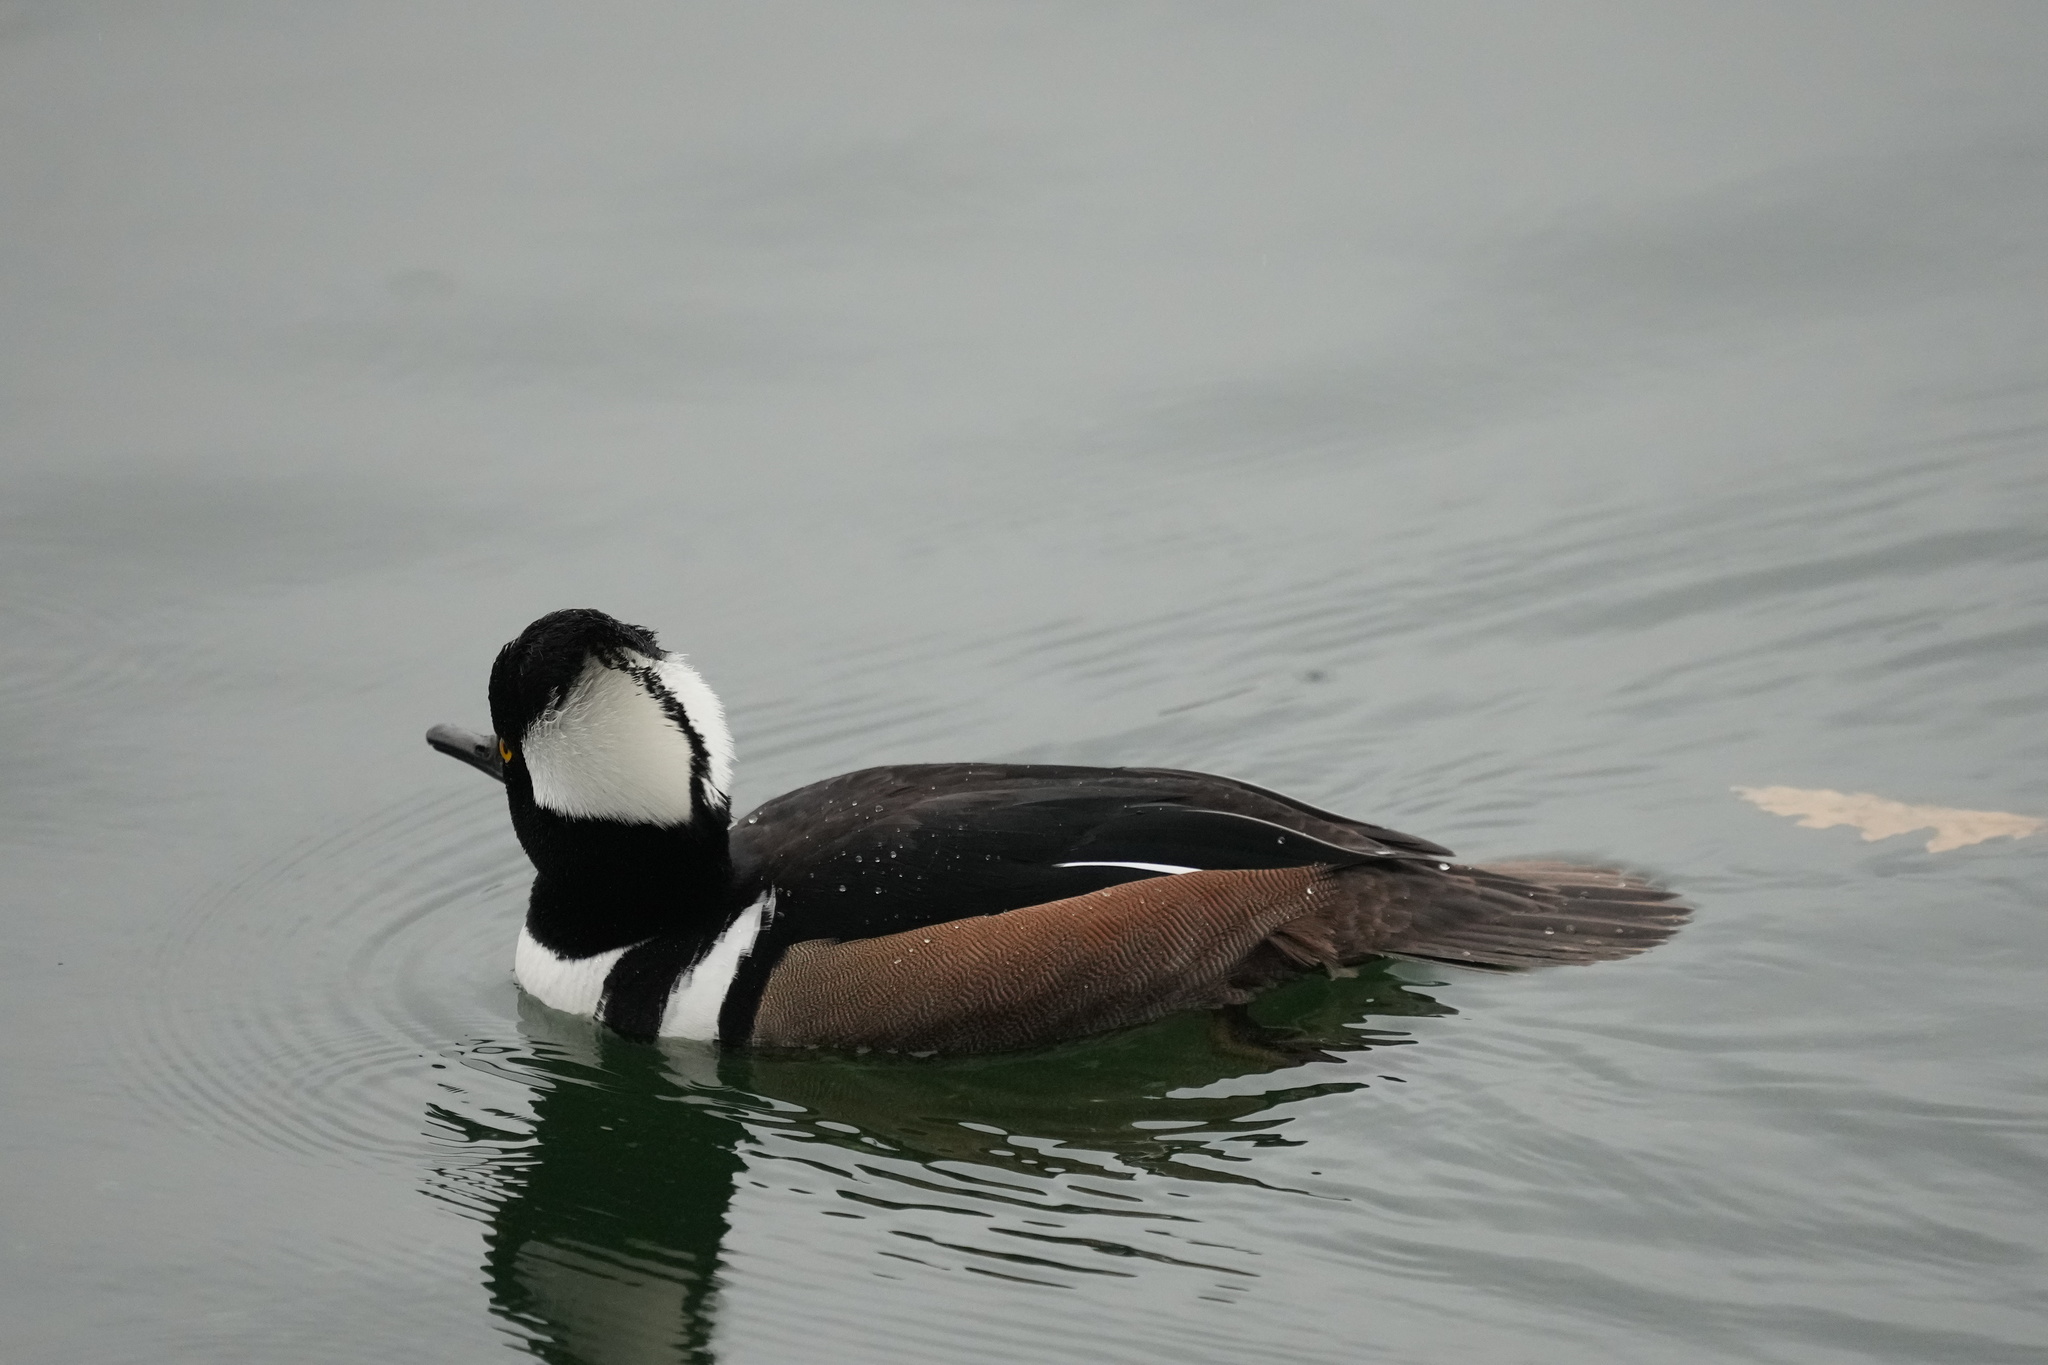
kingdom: Animalia
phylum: Chordata
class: Aves
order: Anseriformes
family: Anatidae
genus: Lophodytes
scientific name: Lophodytes cucullatus
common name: Hooded merganser
